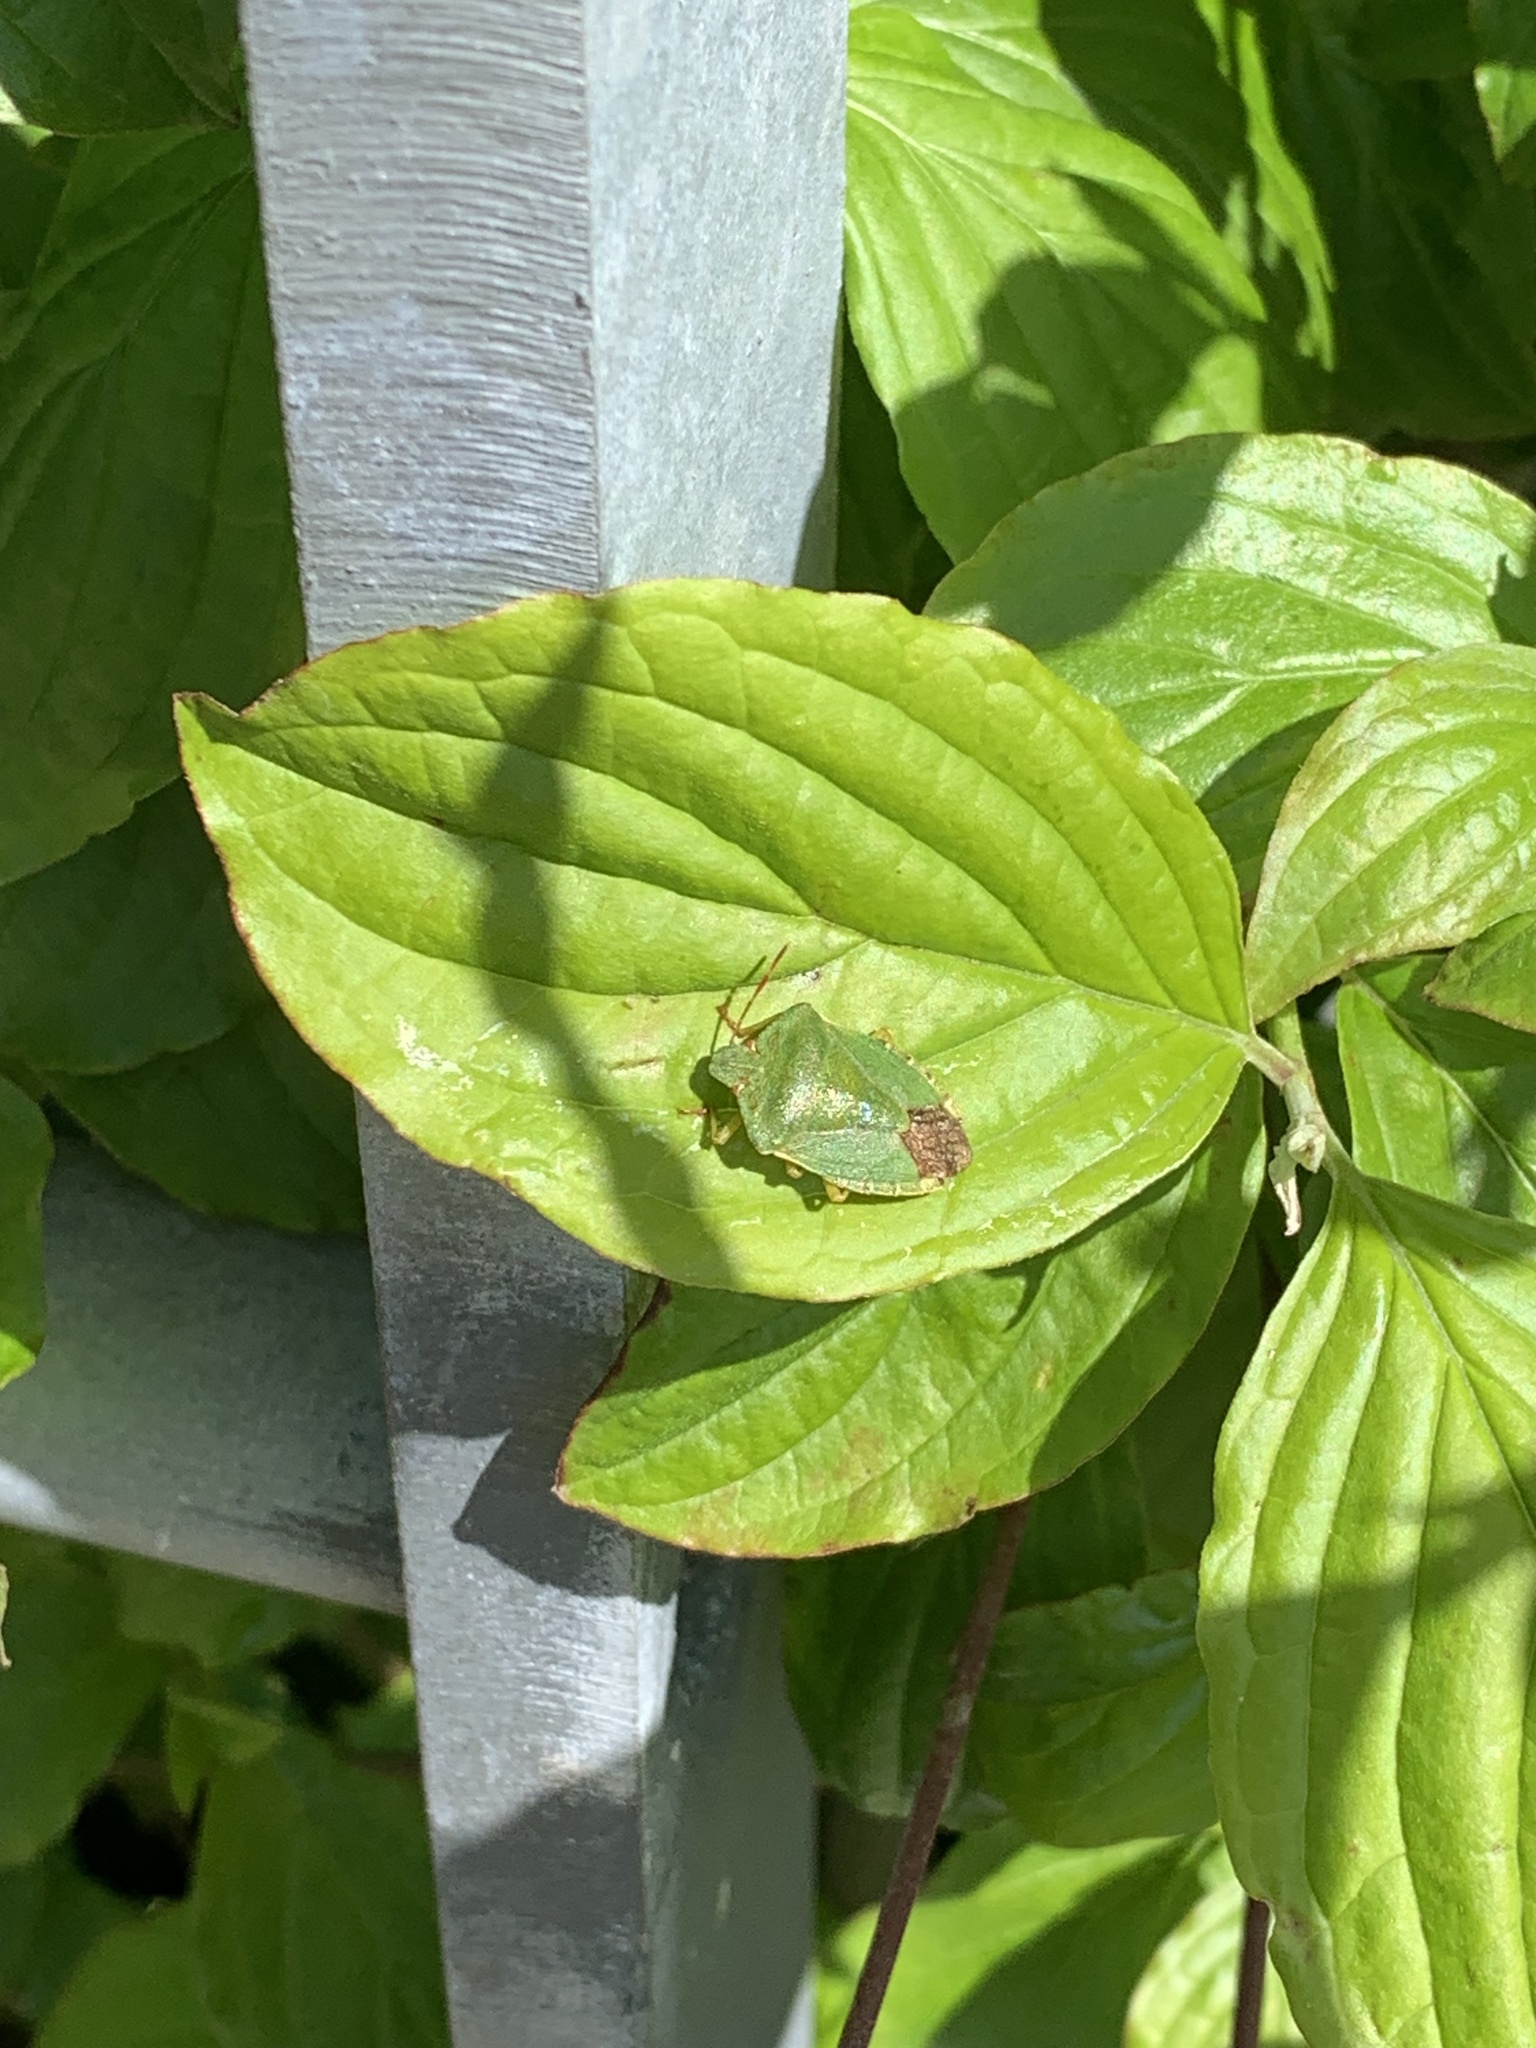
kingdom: Animalia
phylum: Arthropoda
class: Insecta
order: Hemiptera
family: Pentatomidae
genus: Palomena
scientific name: Palomena prasina
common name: Green shieldbug
